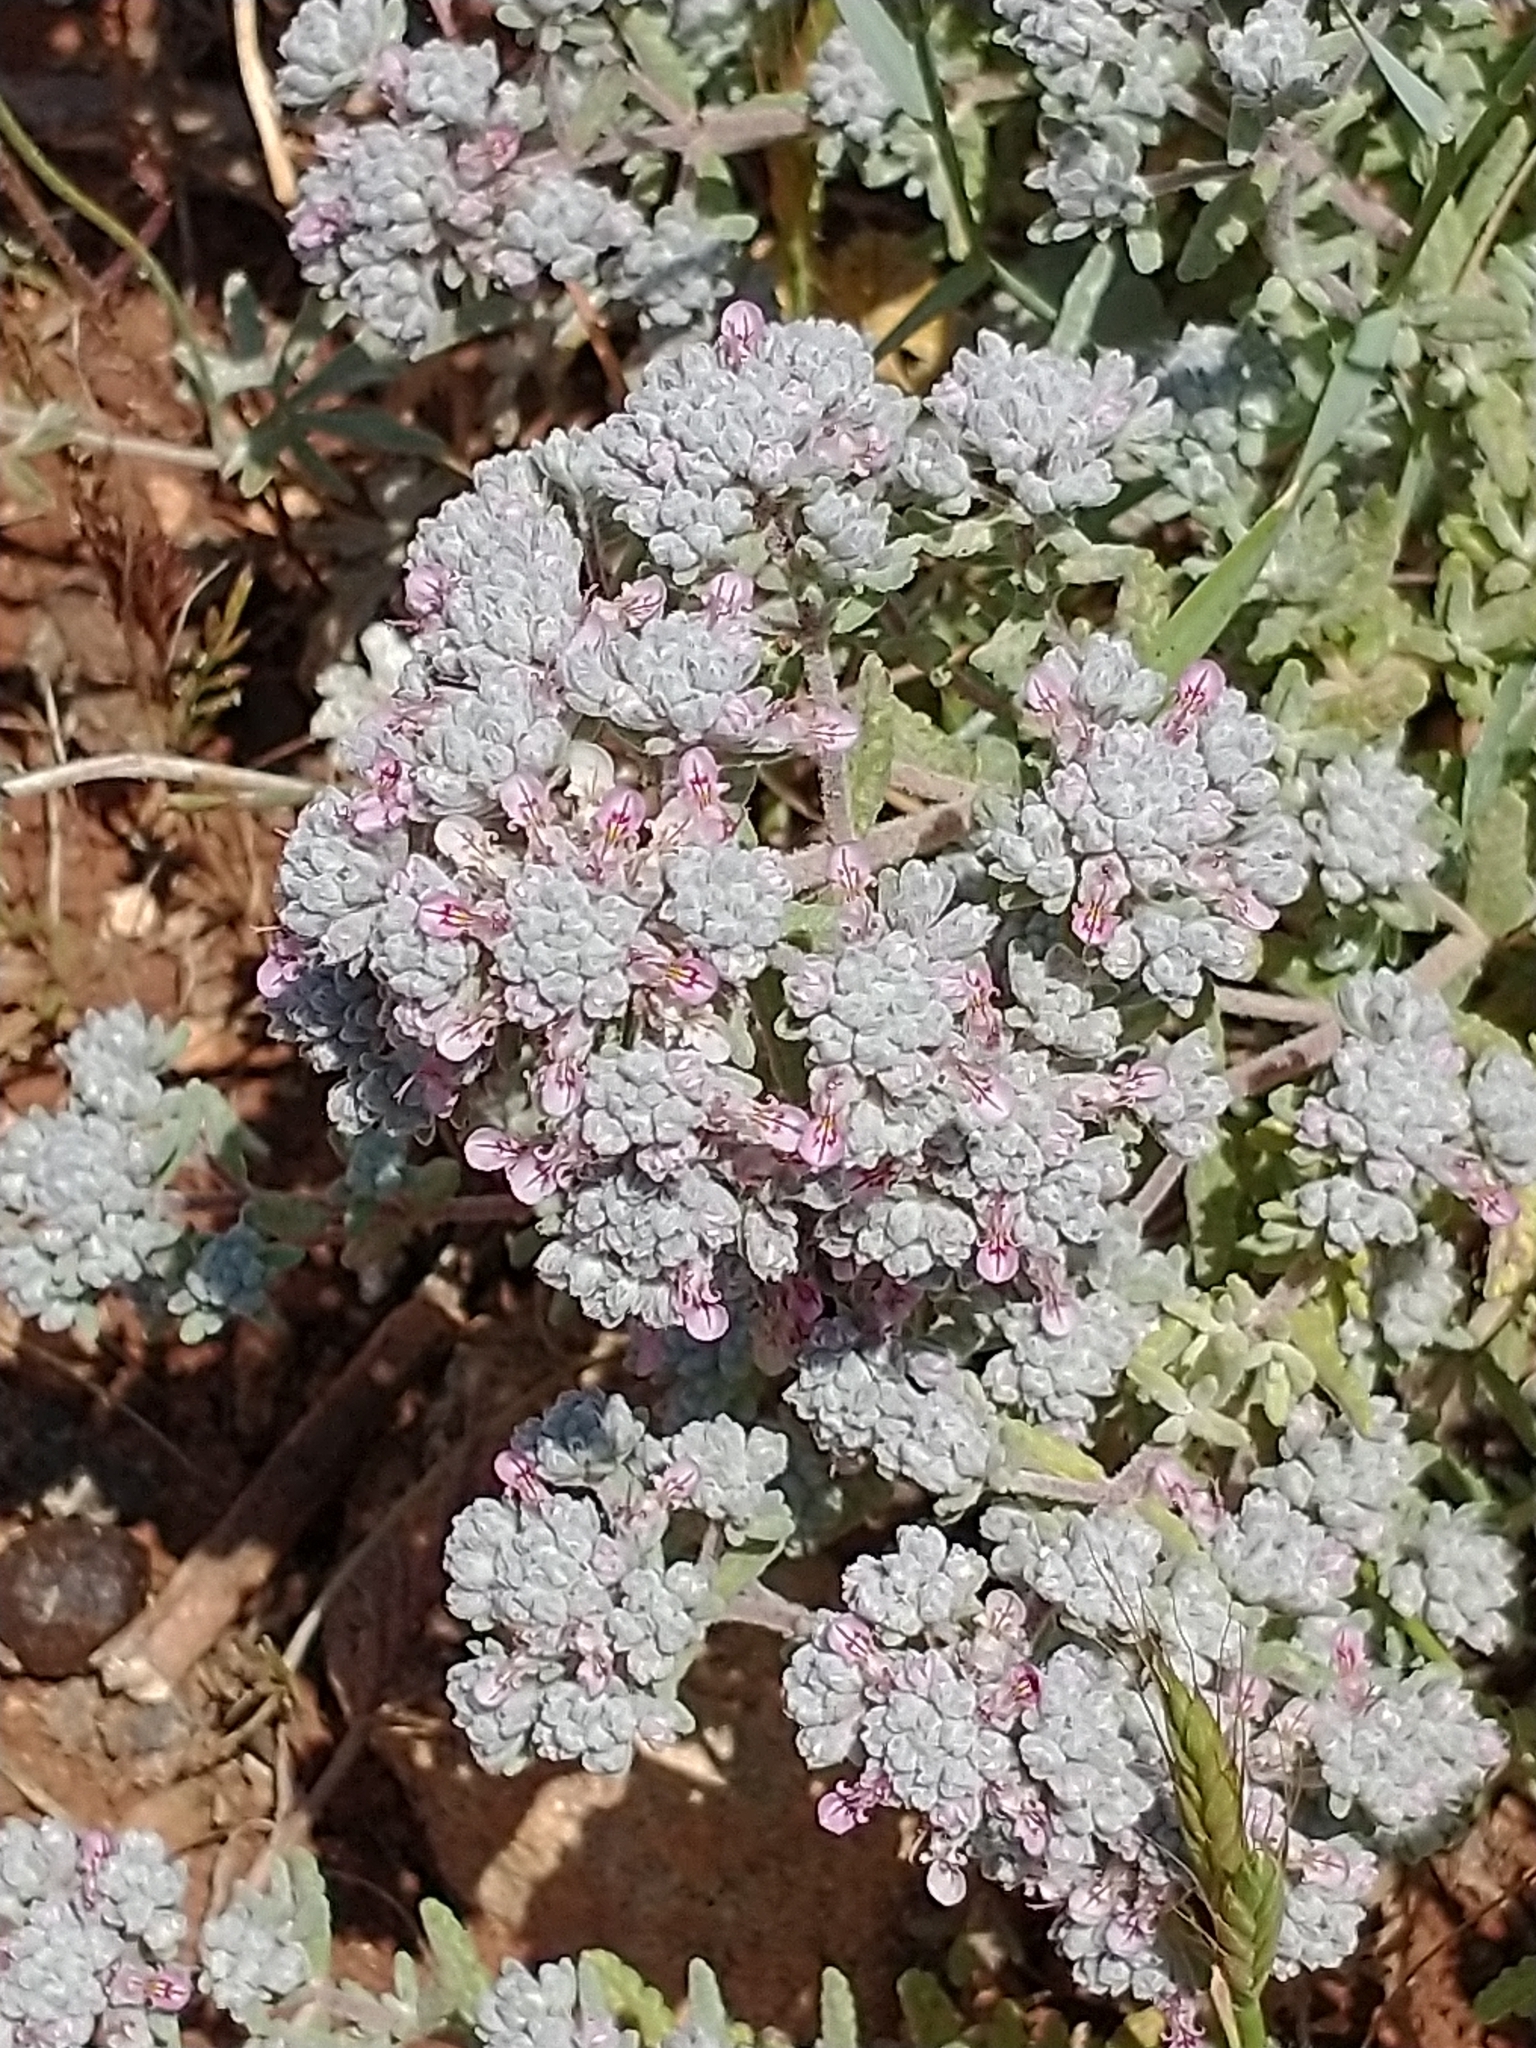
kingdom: Plantae
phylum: Tracheophyta
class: Magnoliopsida
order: Lamiales
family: Lamiaceae
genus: Teucrium
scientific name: Teucrium capitatum
